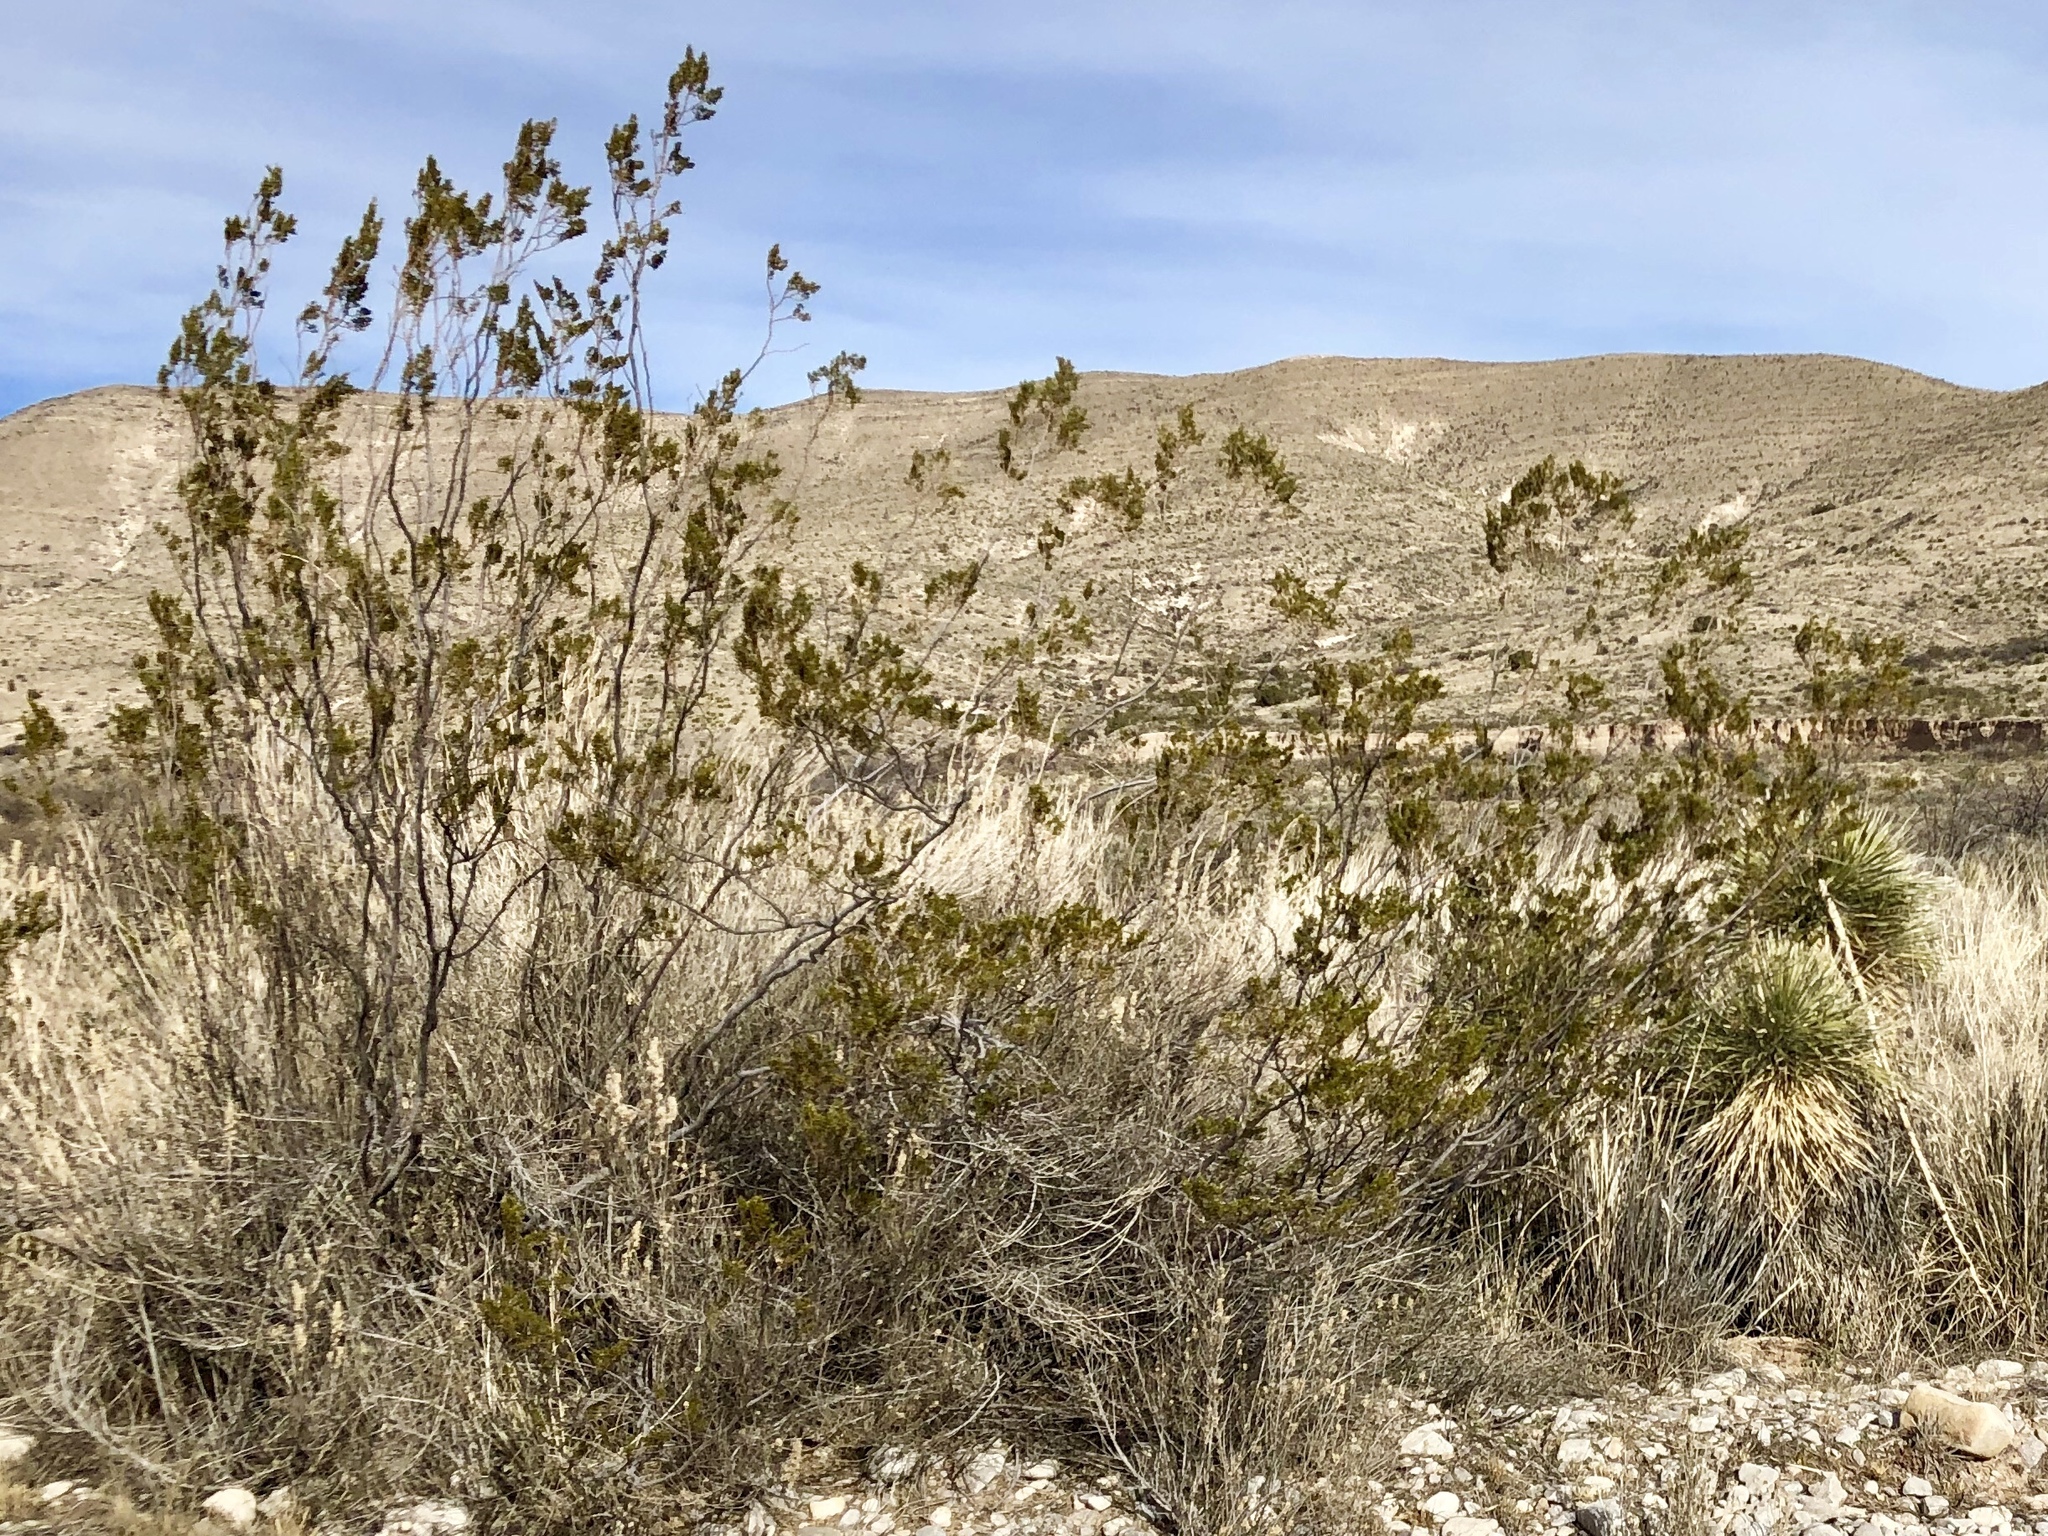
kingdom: Plantae
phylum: Tracheophyta
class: Magnoliopsida
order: Zygophyllales
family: Zygophyllaceae
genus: Larrea
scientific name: Larrea tridentata
